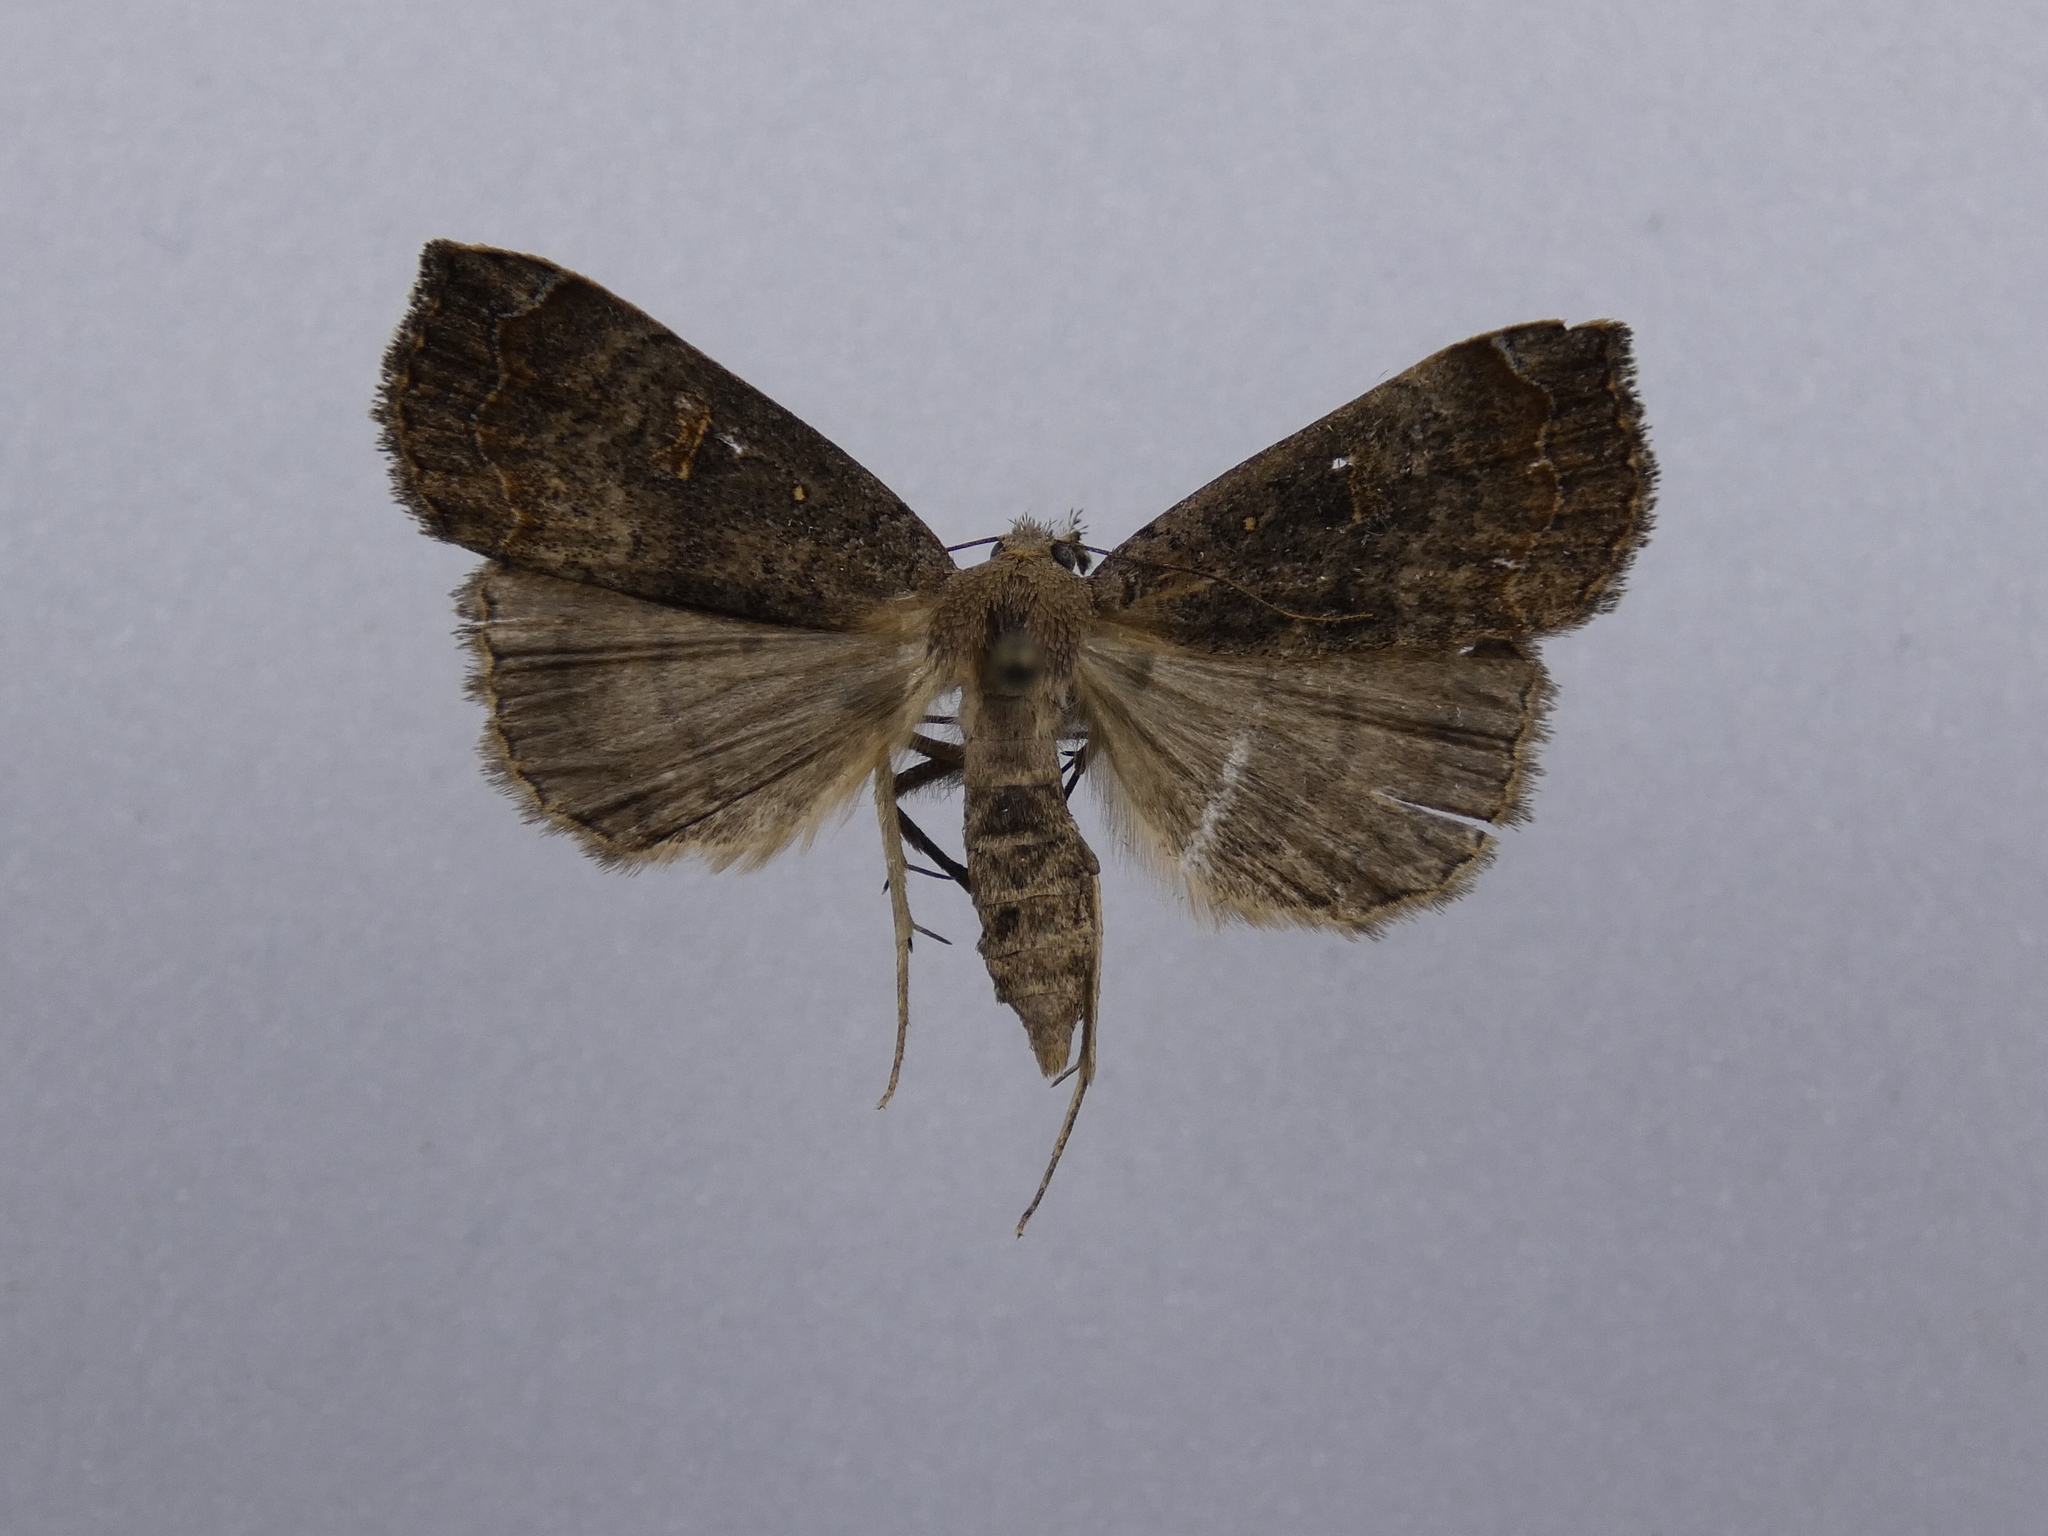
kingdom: Animalia
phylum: Arthropoda
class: Insecta
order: Lepidoptera
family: Erebidae
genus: Rhapsa
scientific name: Rhapsa scotosialis
